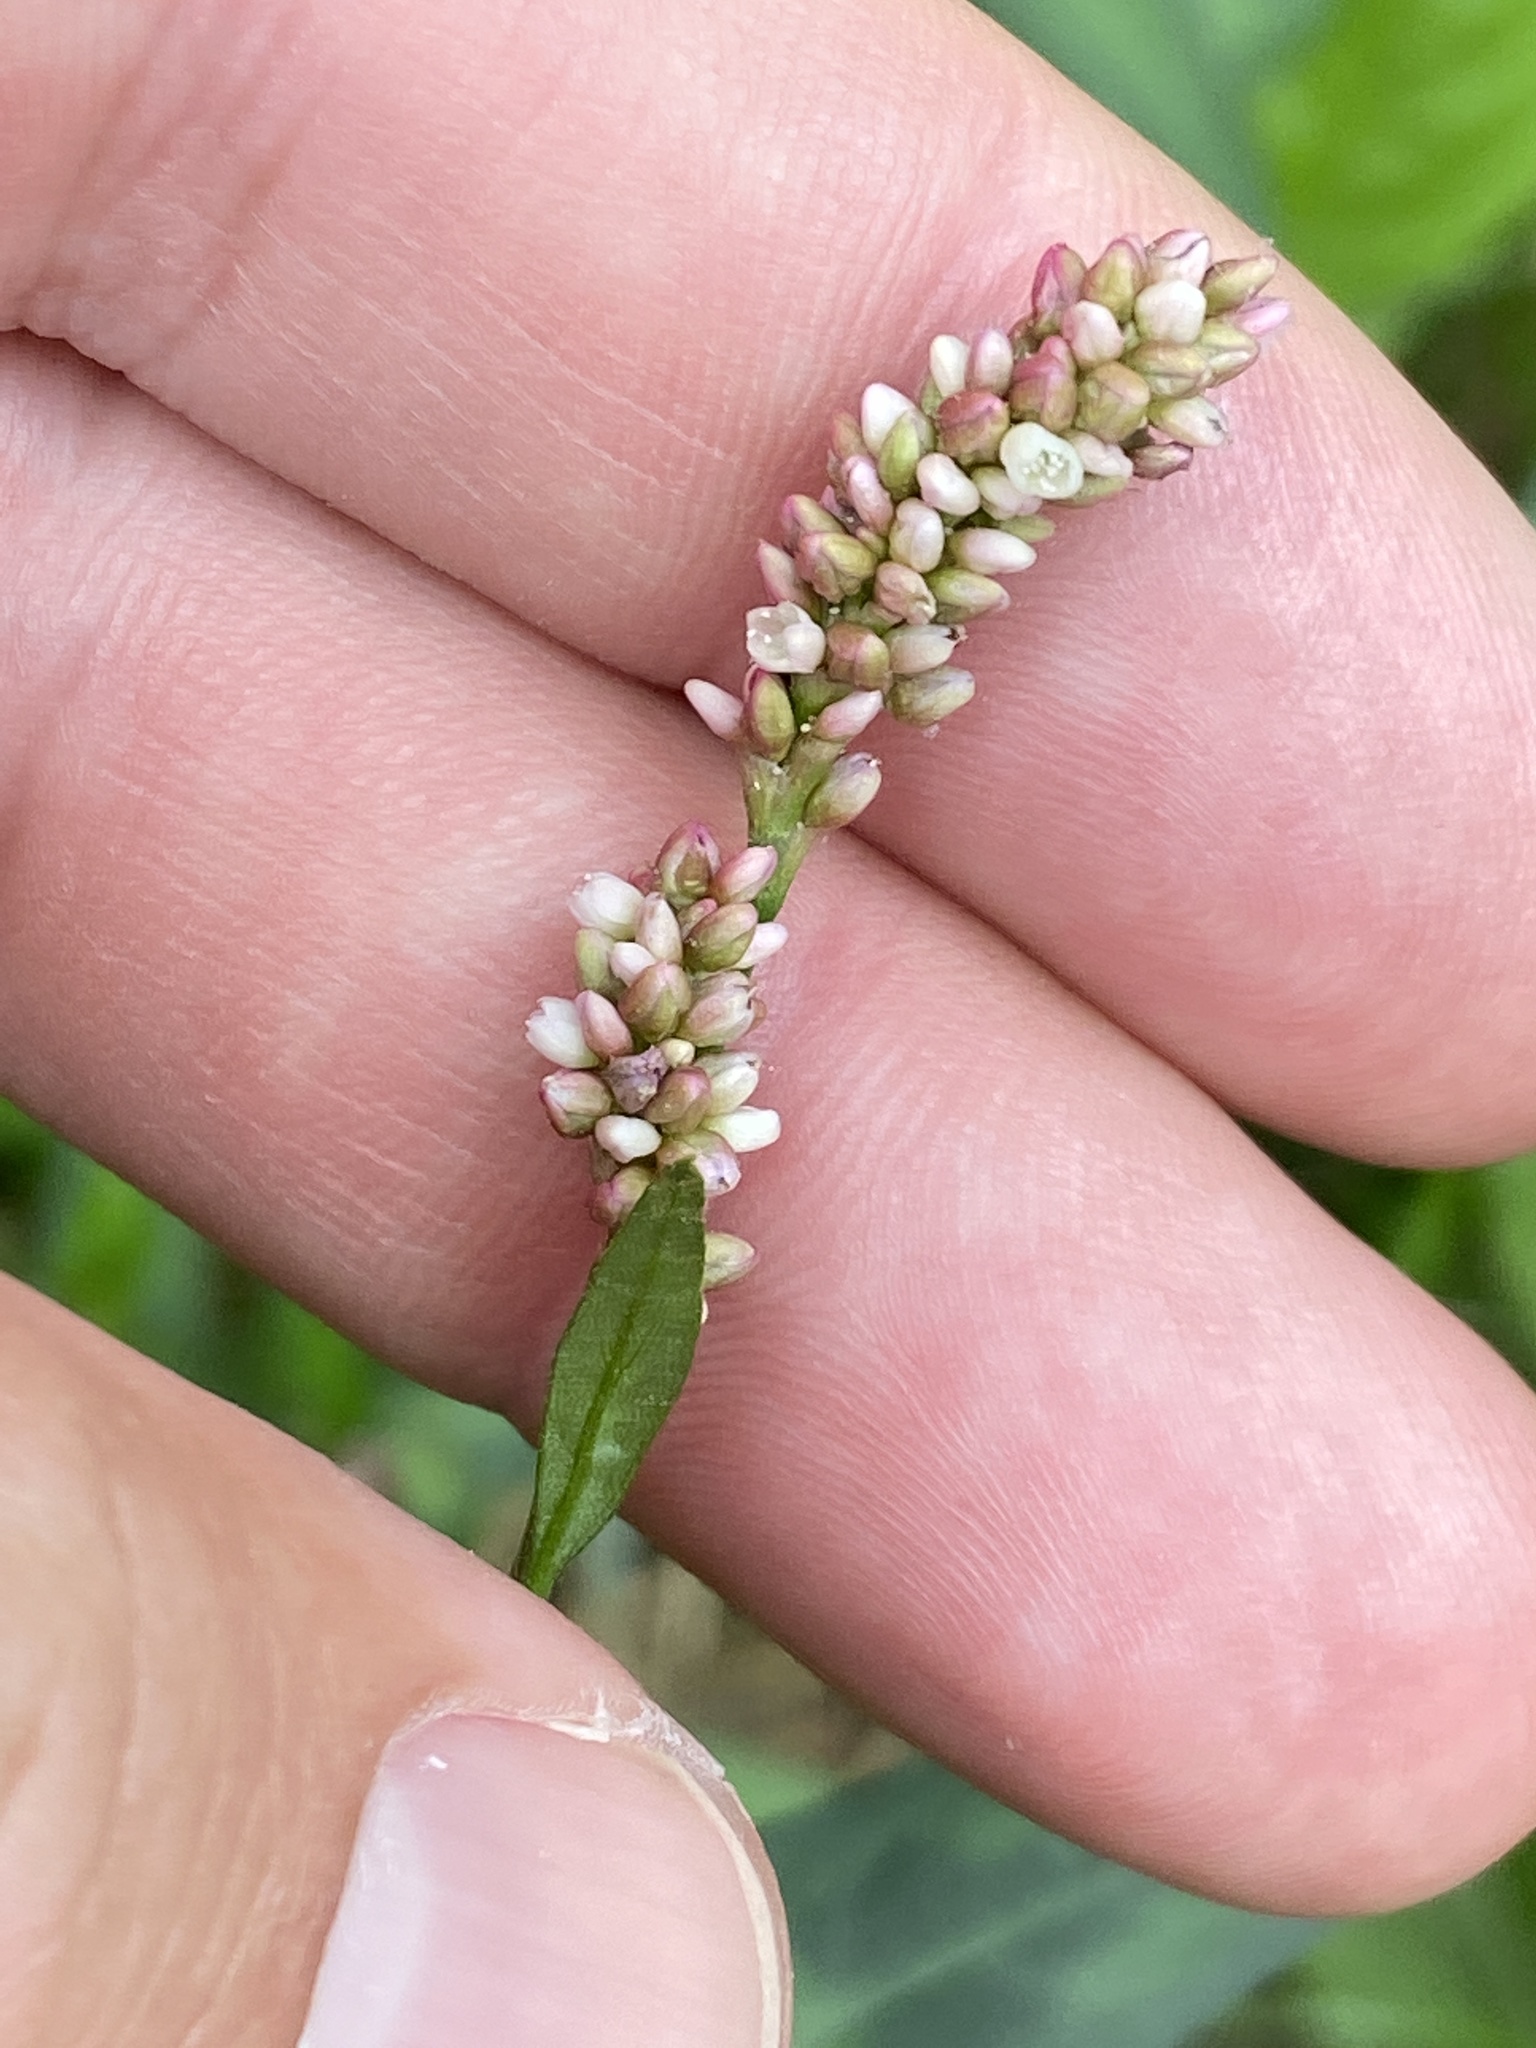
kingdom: Plantae
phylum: Tracheophyta
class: Magnoliopsida
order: Caryophyllales
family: Polygonaceae
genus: Persicaria
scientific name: Persicaria maculosa
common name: Redshank
